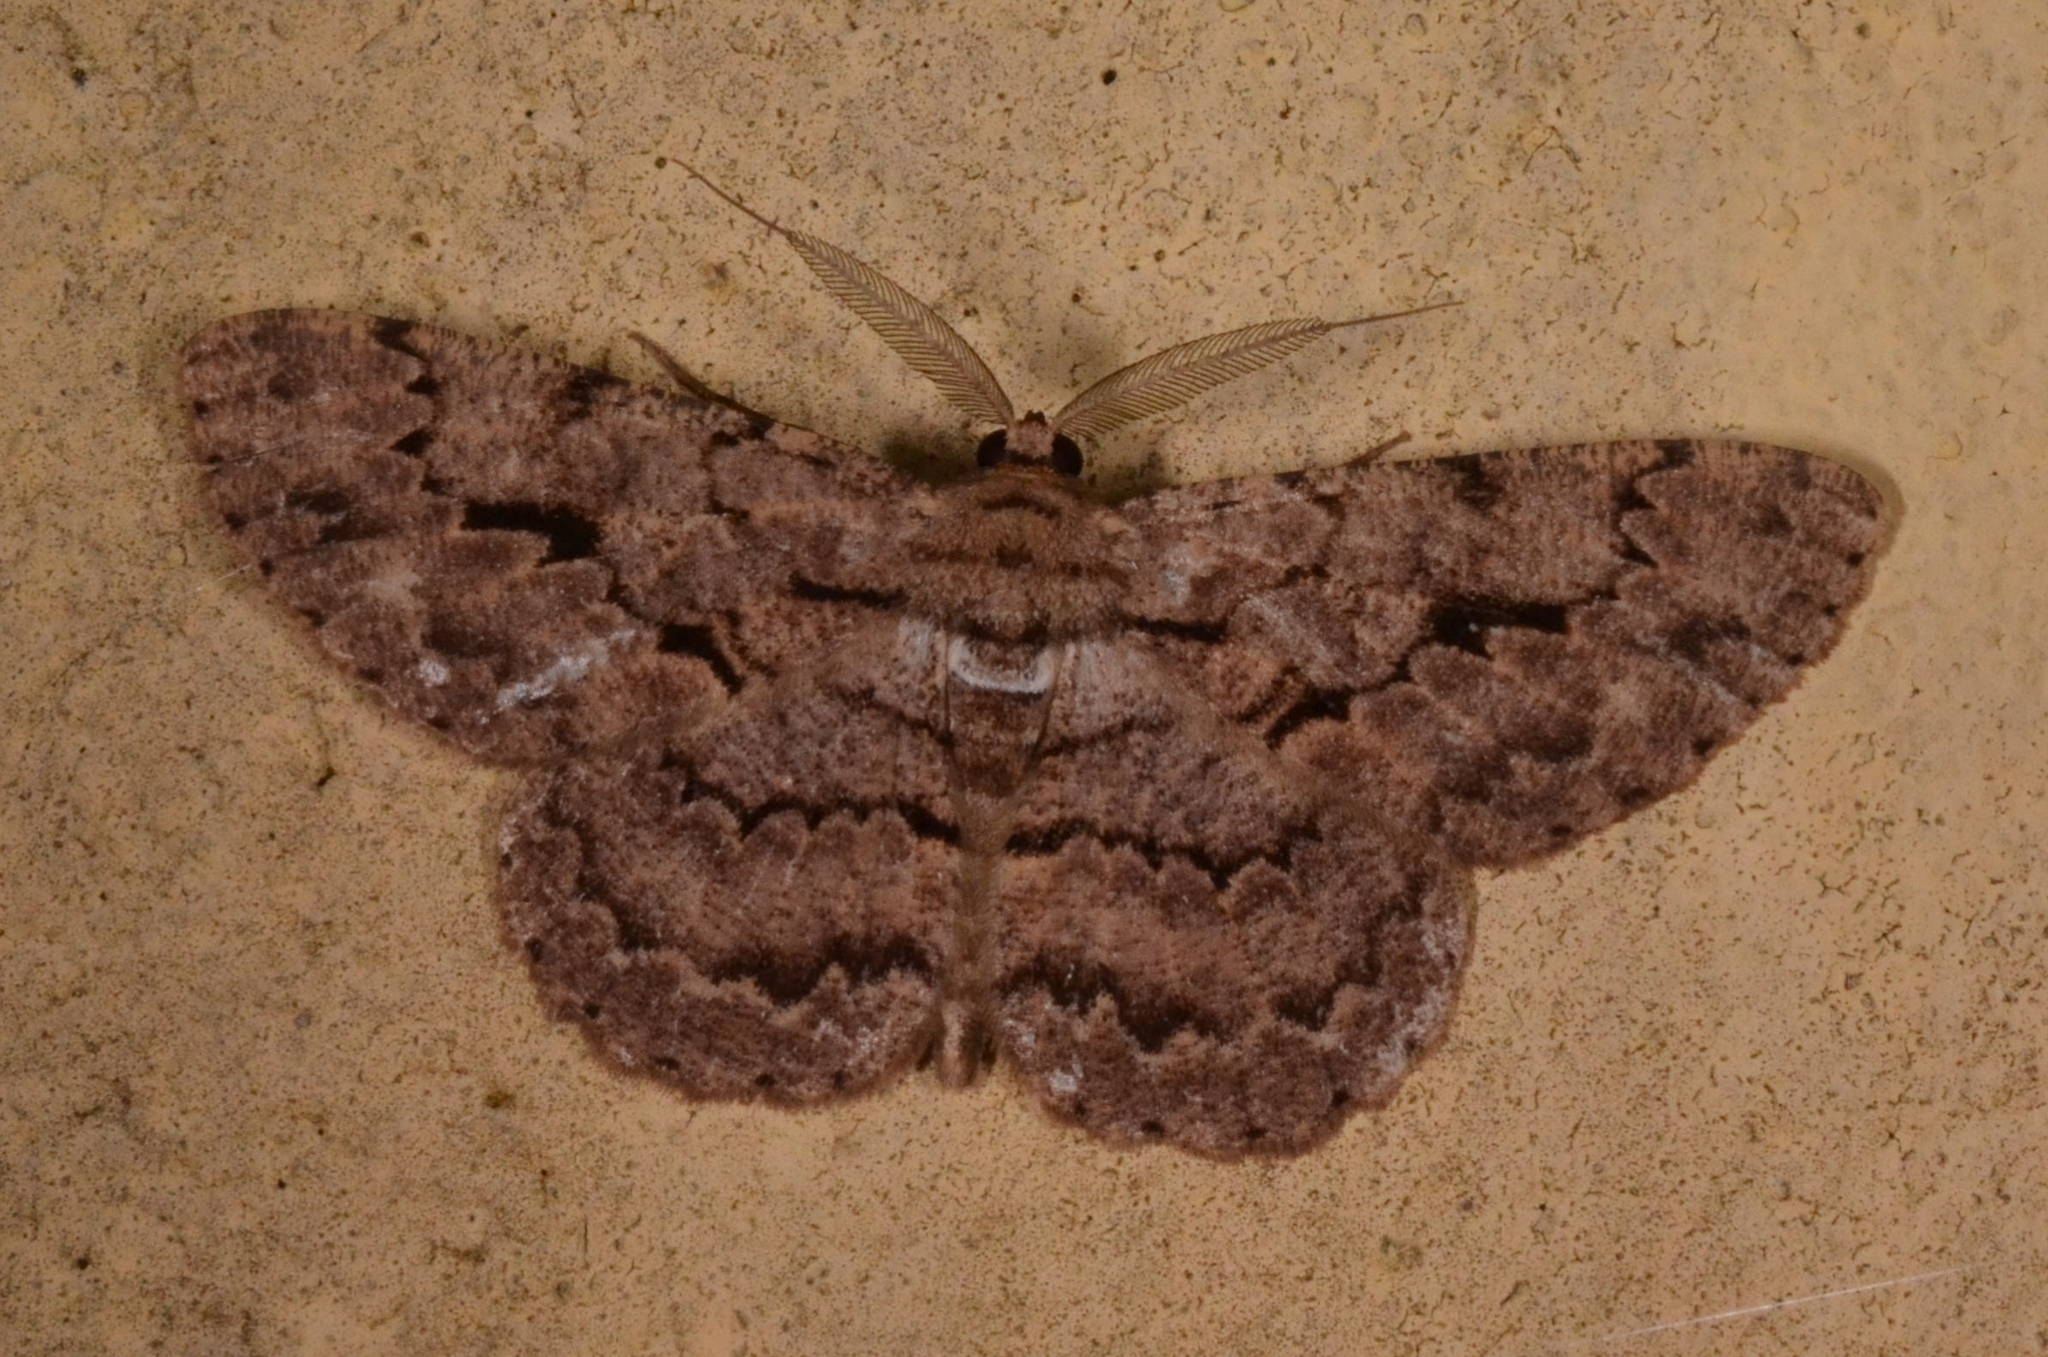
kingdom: Animalia
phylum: Arthropoda
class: Insecta
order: Lepidoptera
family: Geometridae
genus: Hypomecis
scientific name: Hypomecis costaria
